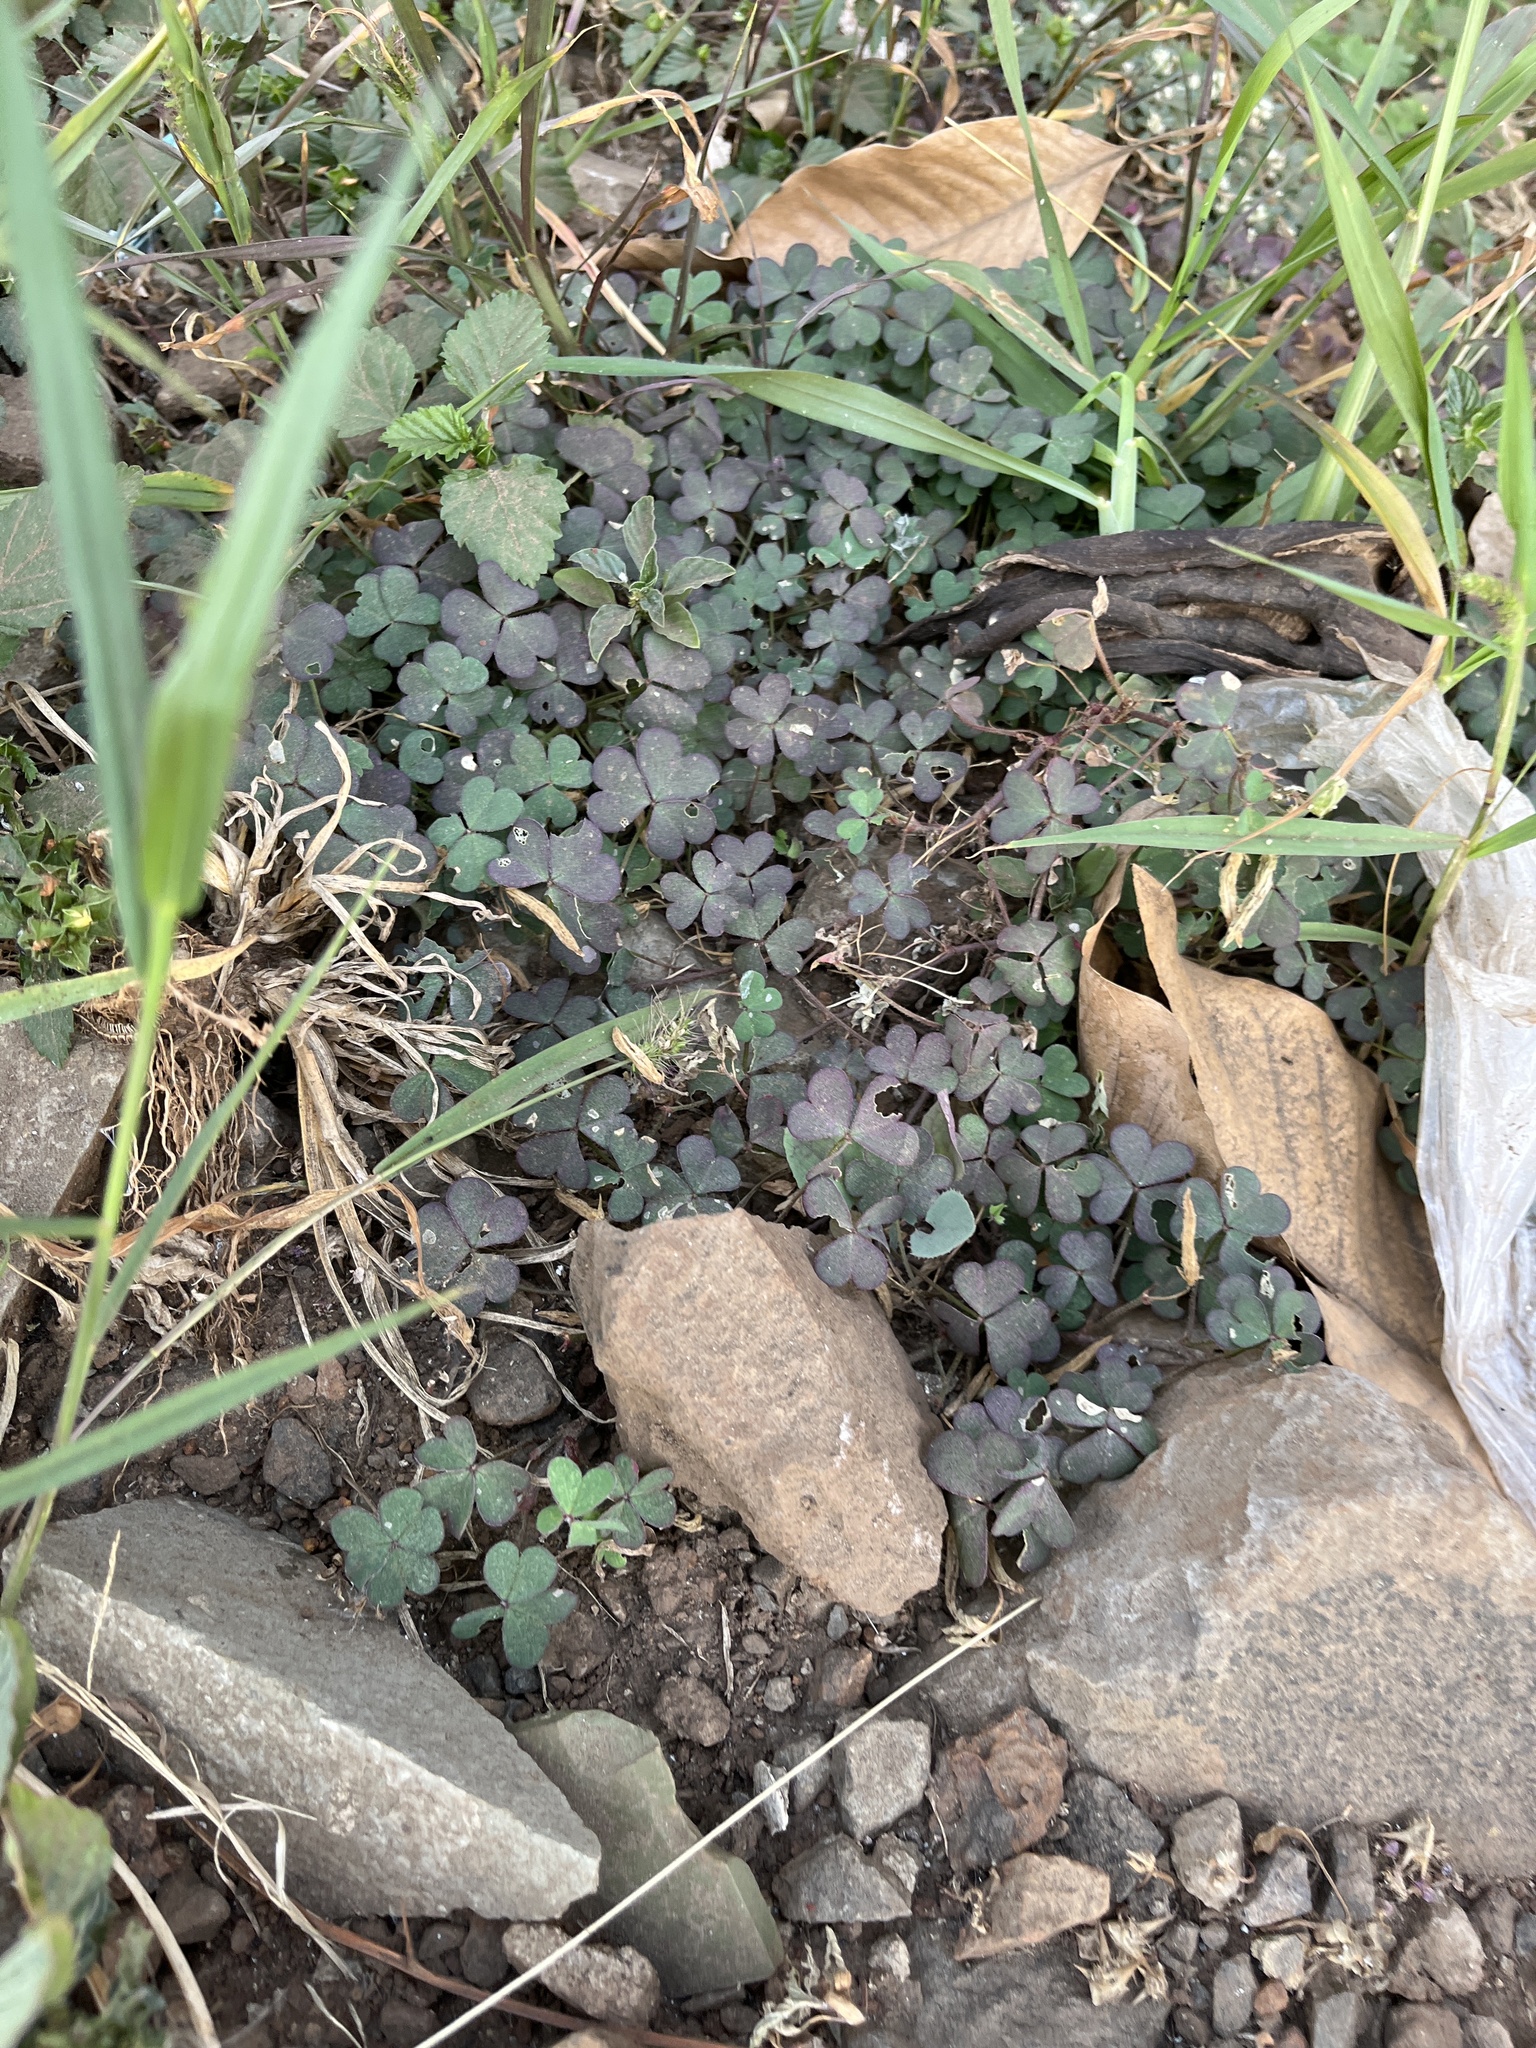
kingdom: Plantae
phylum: Tracheophyta
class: Magnoliopsida
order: Oxalidales
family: Oxalidaceae
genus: Oxalis
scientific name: Oxalis corniculata
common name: Procumbent yellow-sorrel
